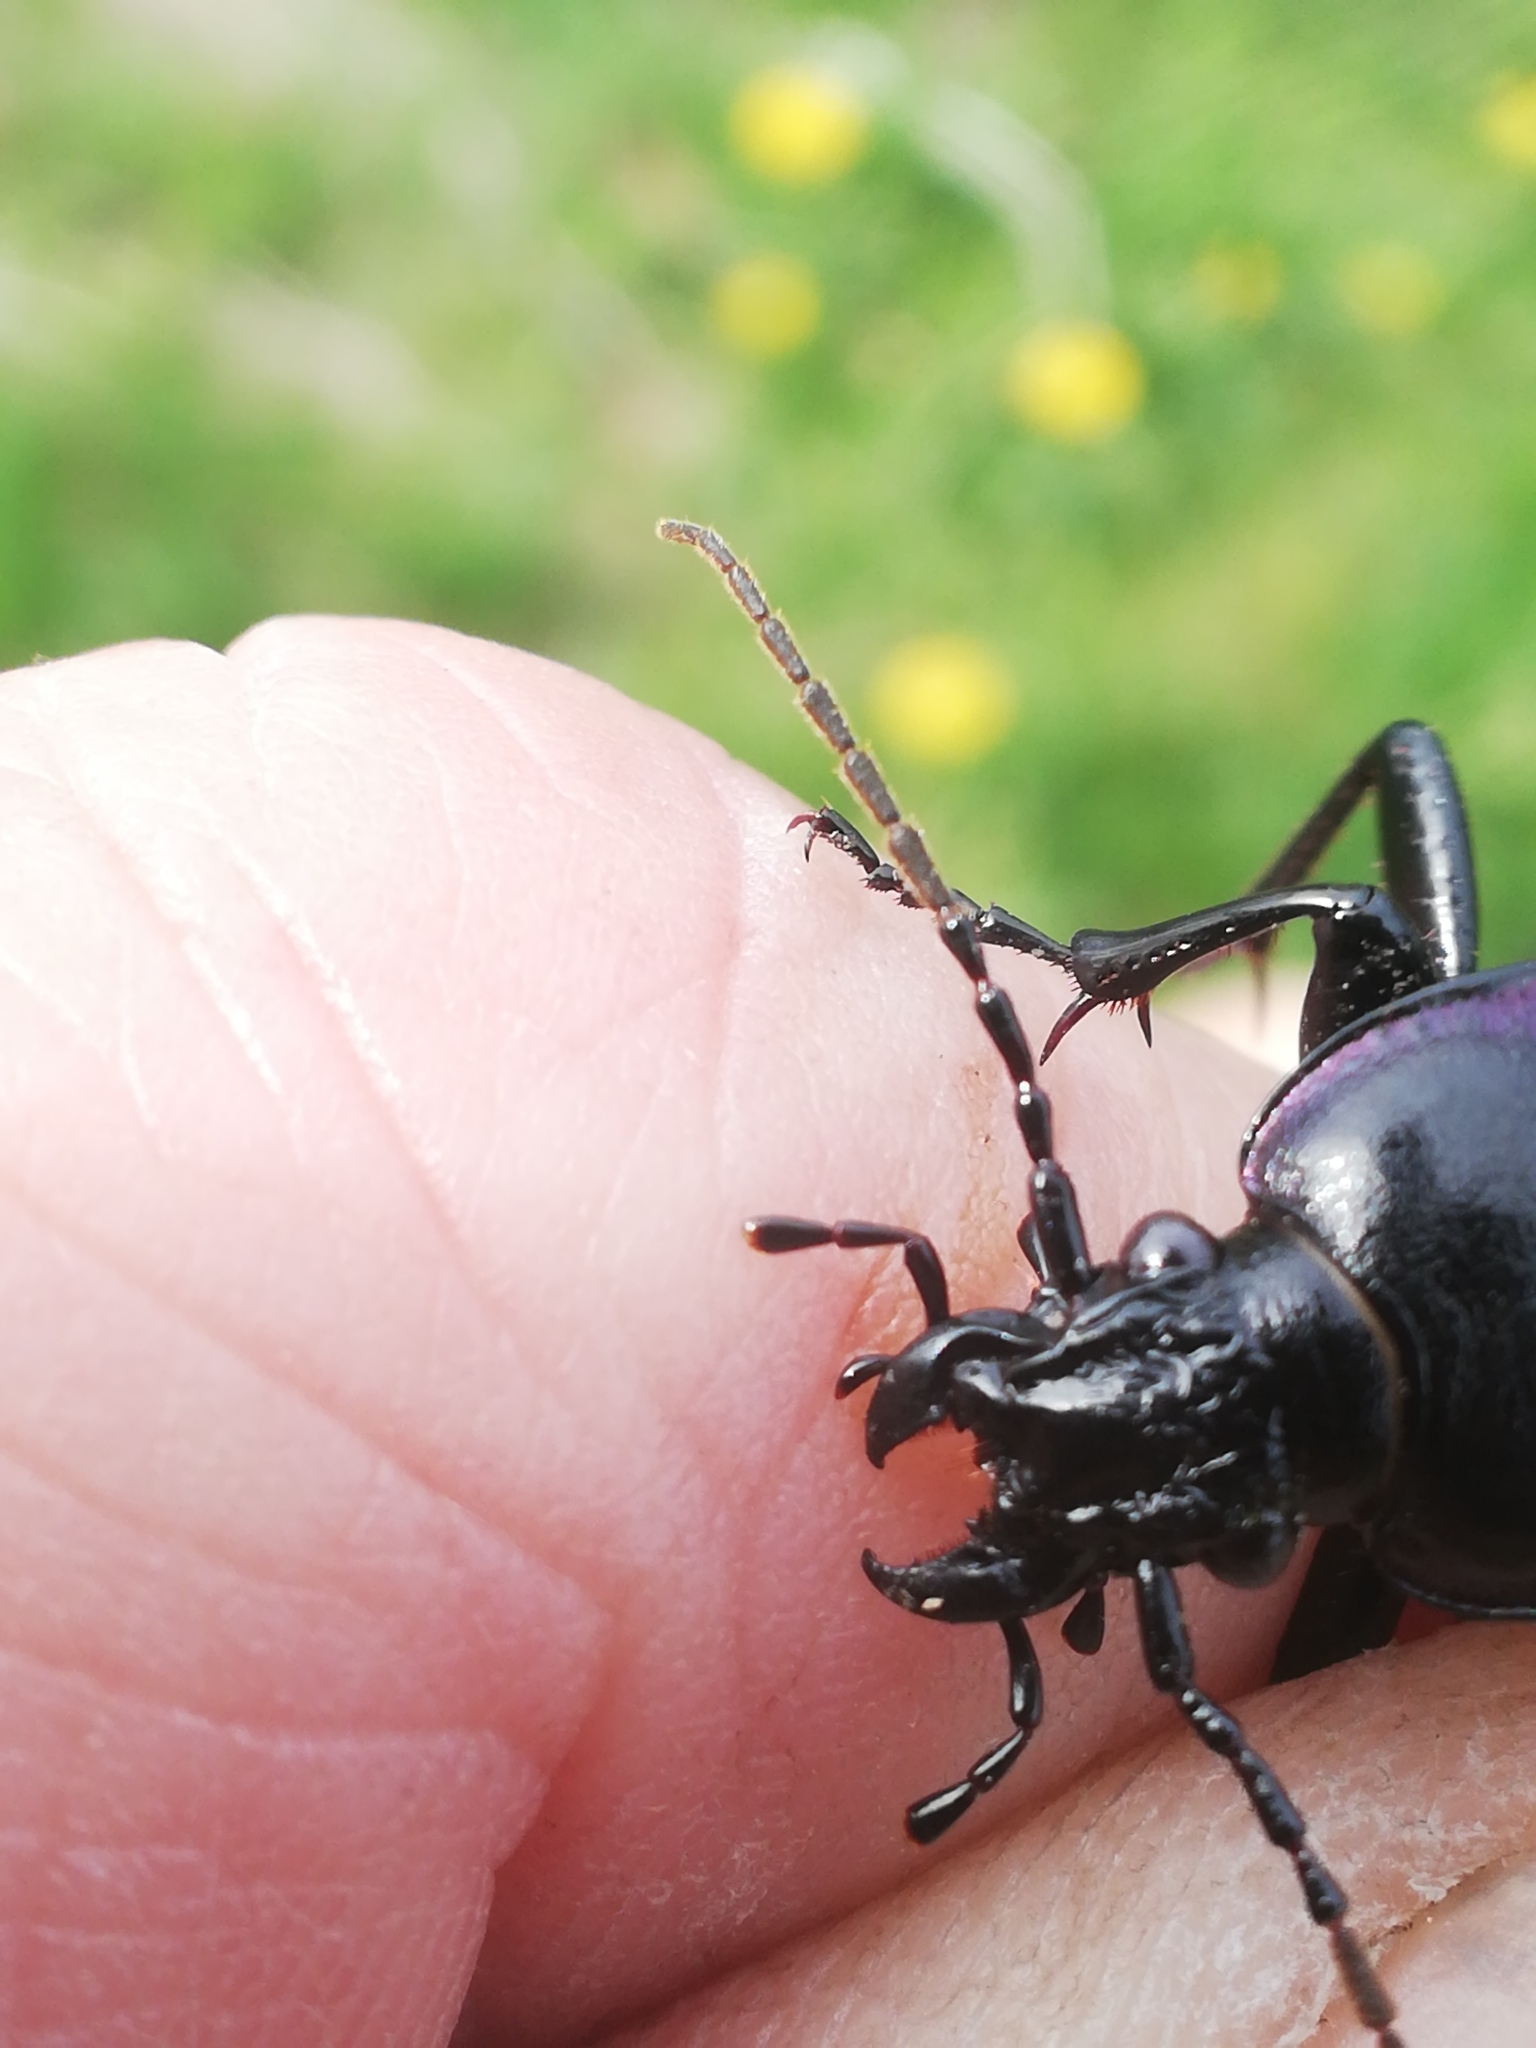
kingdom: Animalia
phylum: Arthropoda
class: Insecta
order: Coleoptera
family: Carabidae
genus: Carabus
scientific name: Carabus nemoralis
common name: European ground beetle
